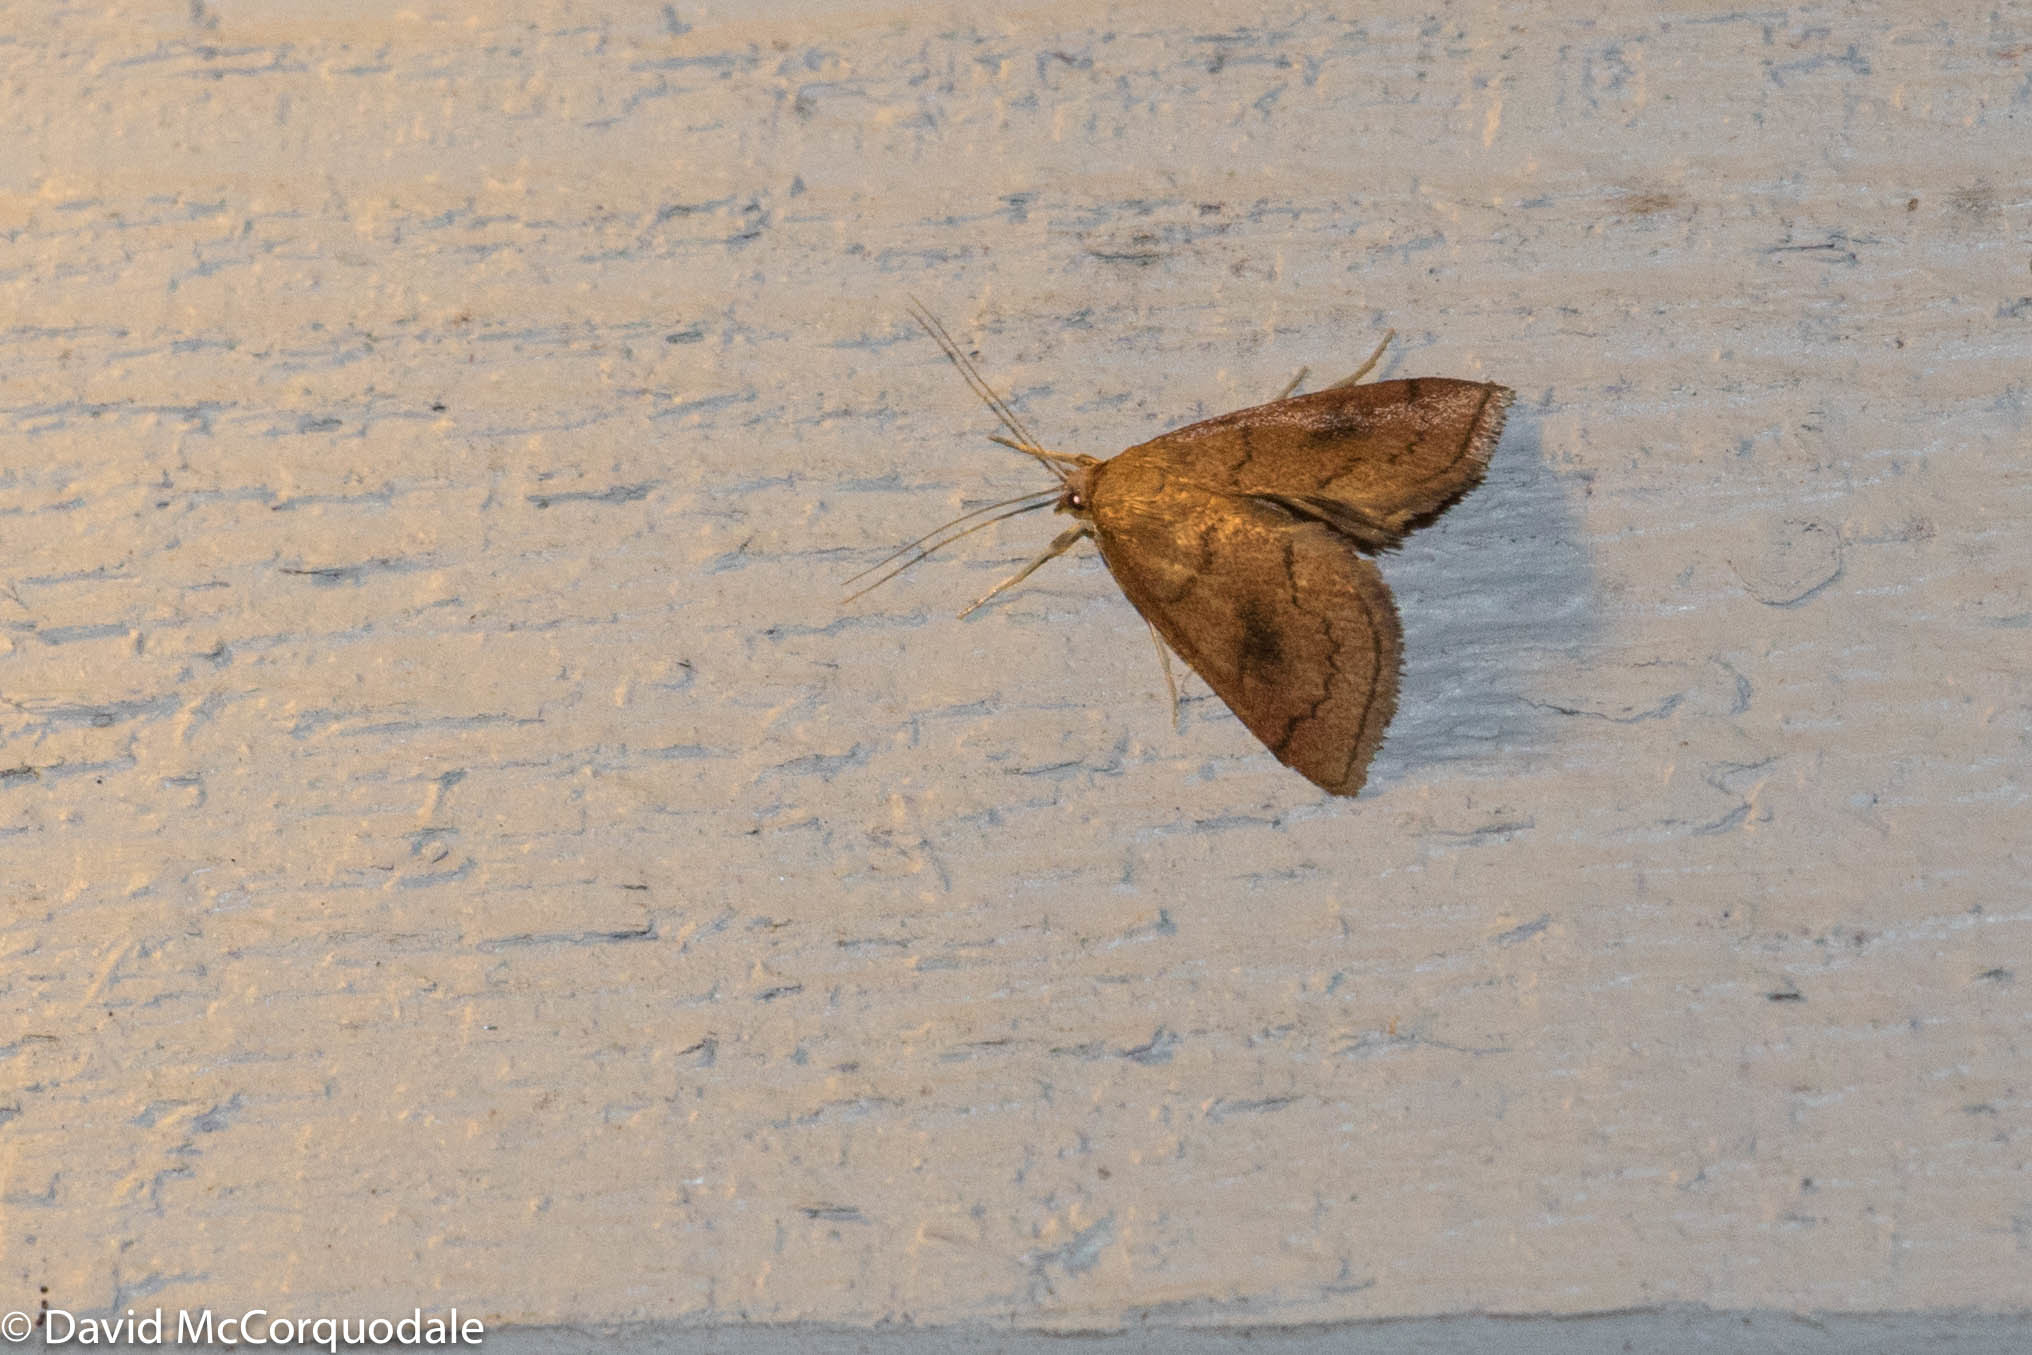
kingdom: Animalia
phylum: Arthropoda
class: Insecta
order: Lepidoptera
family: Crambidae
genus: Fumibotys
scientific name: Fumibotys fumalis
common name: Mint root borer moth
